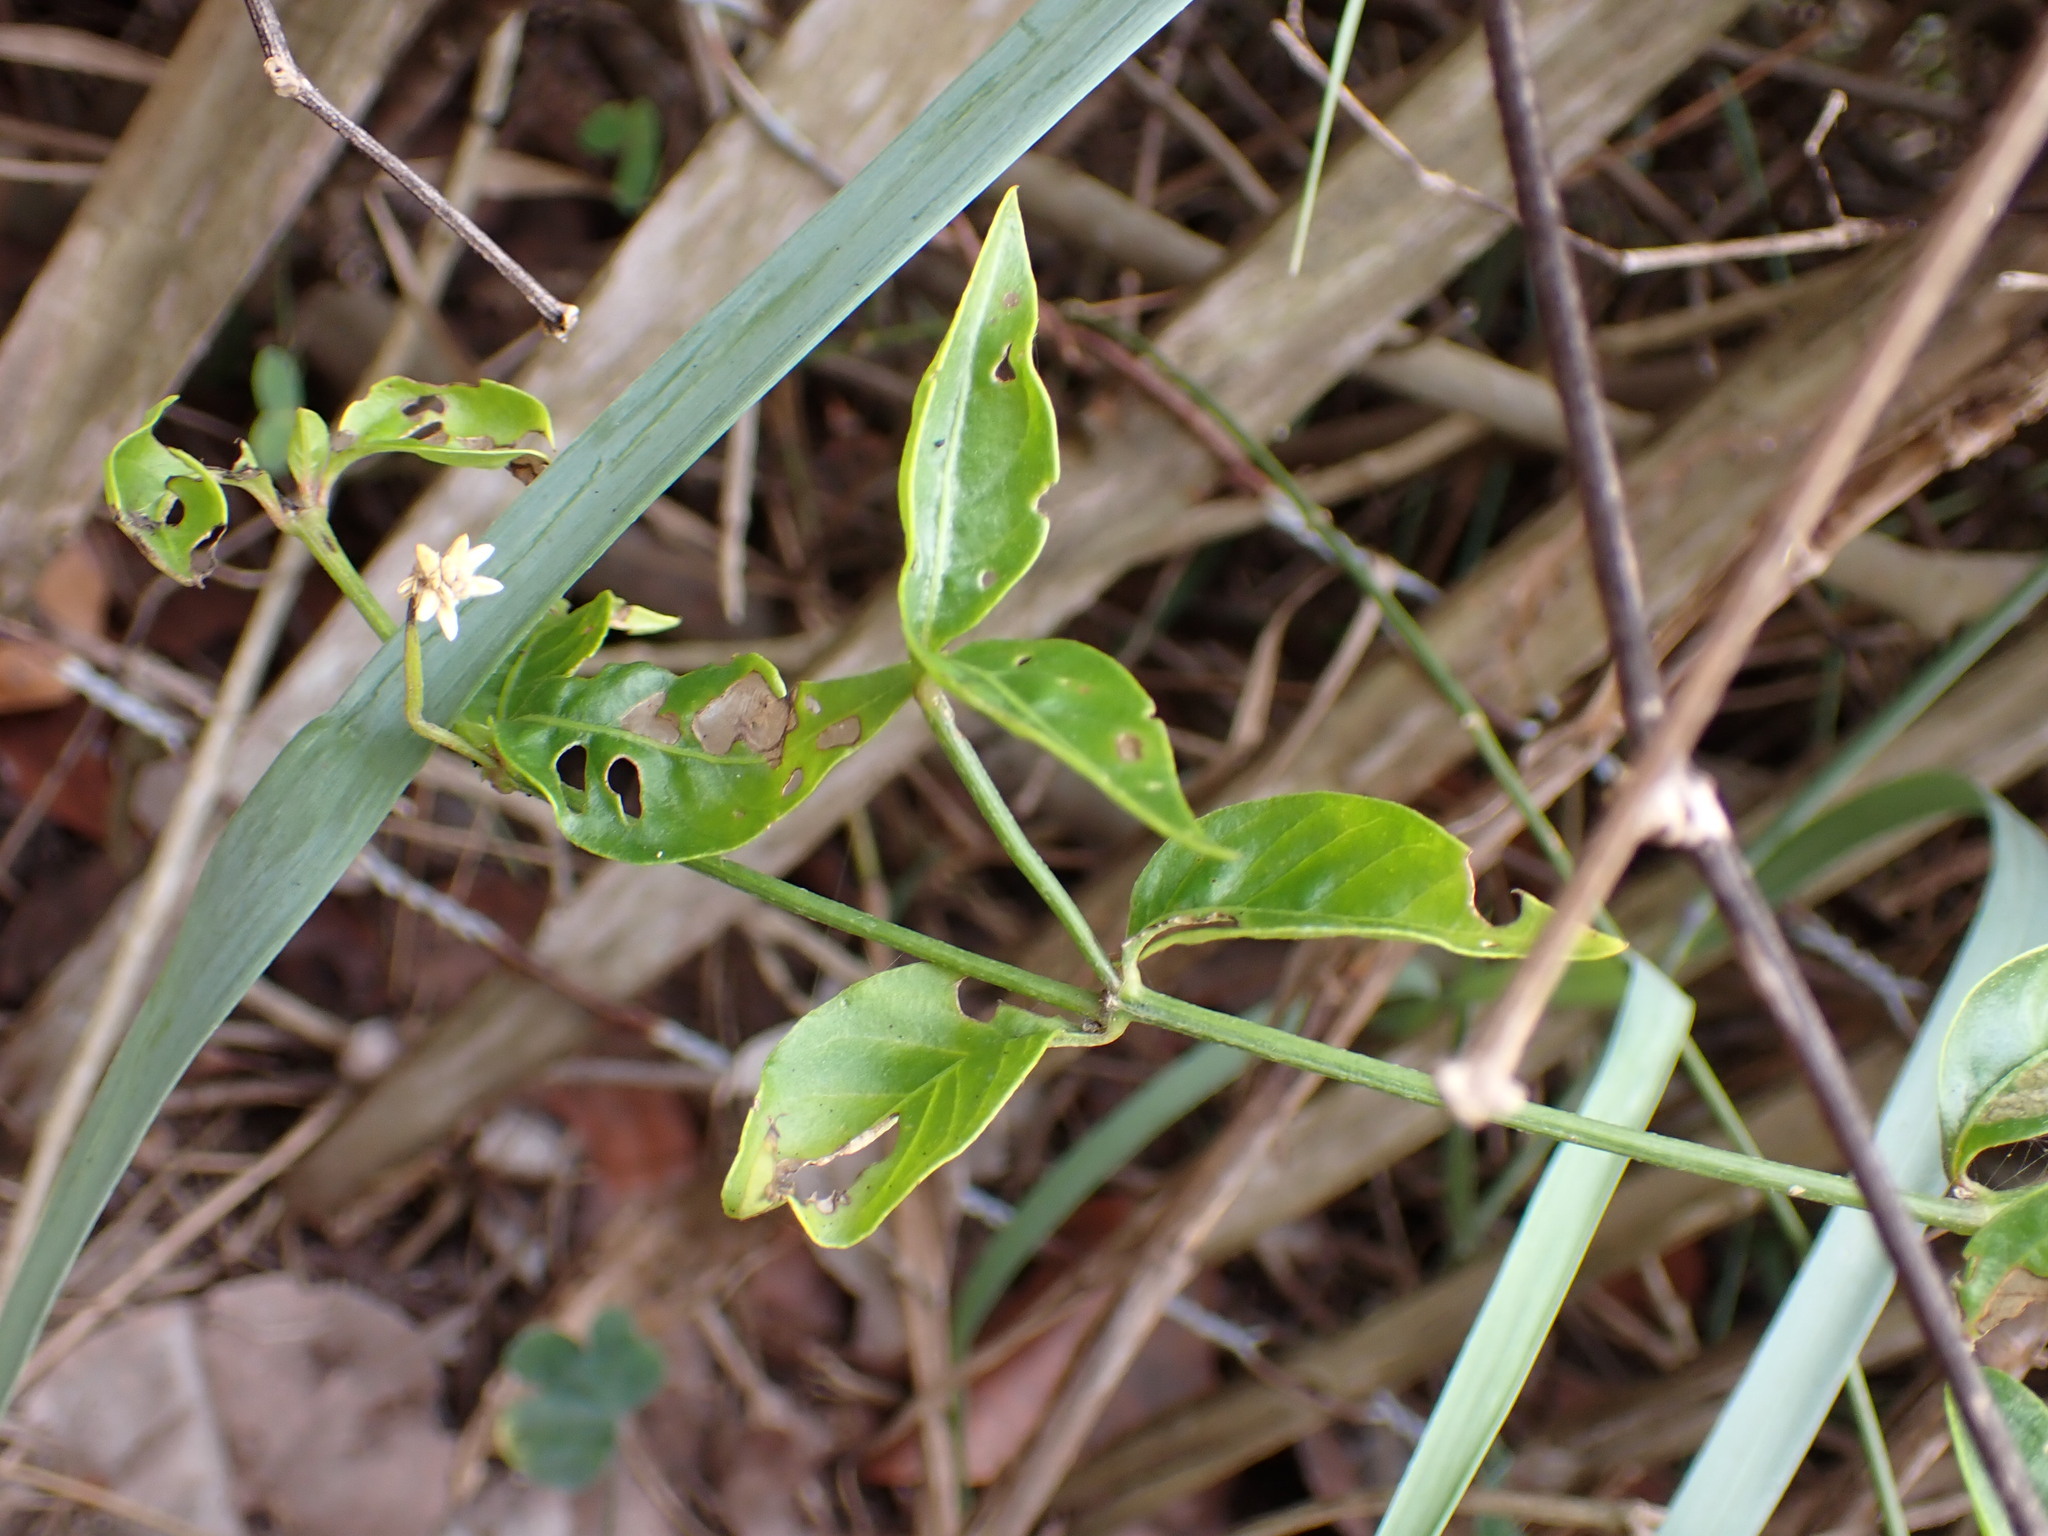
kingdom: Plantae
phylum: Tracheophyta
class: Magnoliopsida
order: Caryophyllales
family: Amaranthaceae
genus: Alternanthera
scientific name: Alternanthera flavescens
